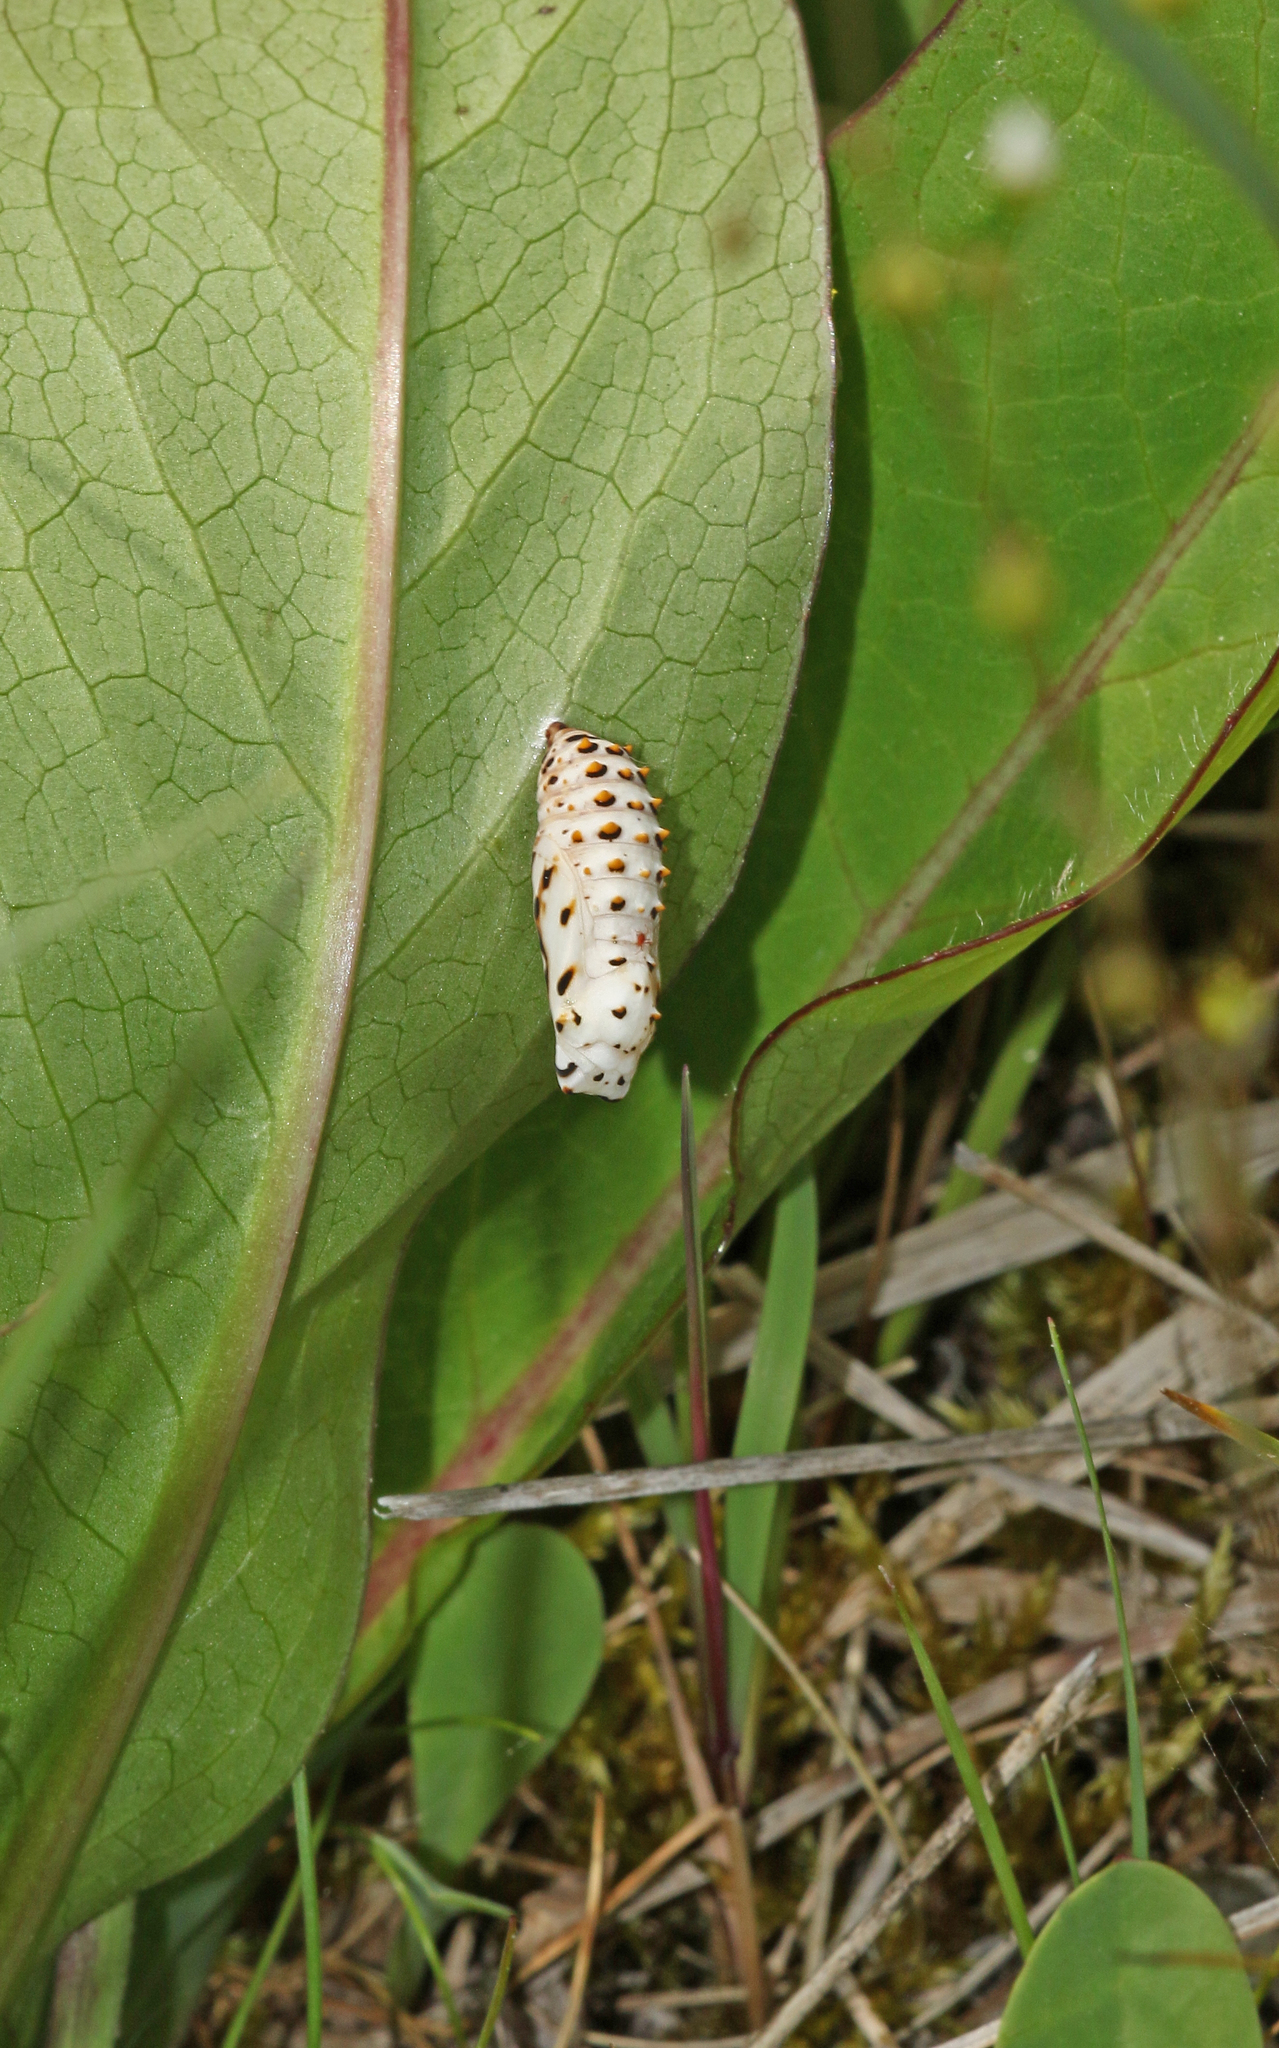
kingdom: Animalia
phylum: Arthropoda
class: Insecta
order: Lepidoptera
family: Nymphalidae
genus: Melitaea
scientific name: Melitaea diamina
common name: False heath fritillary
